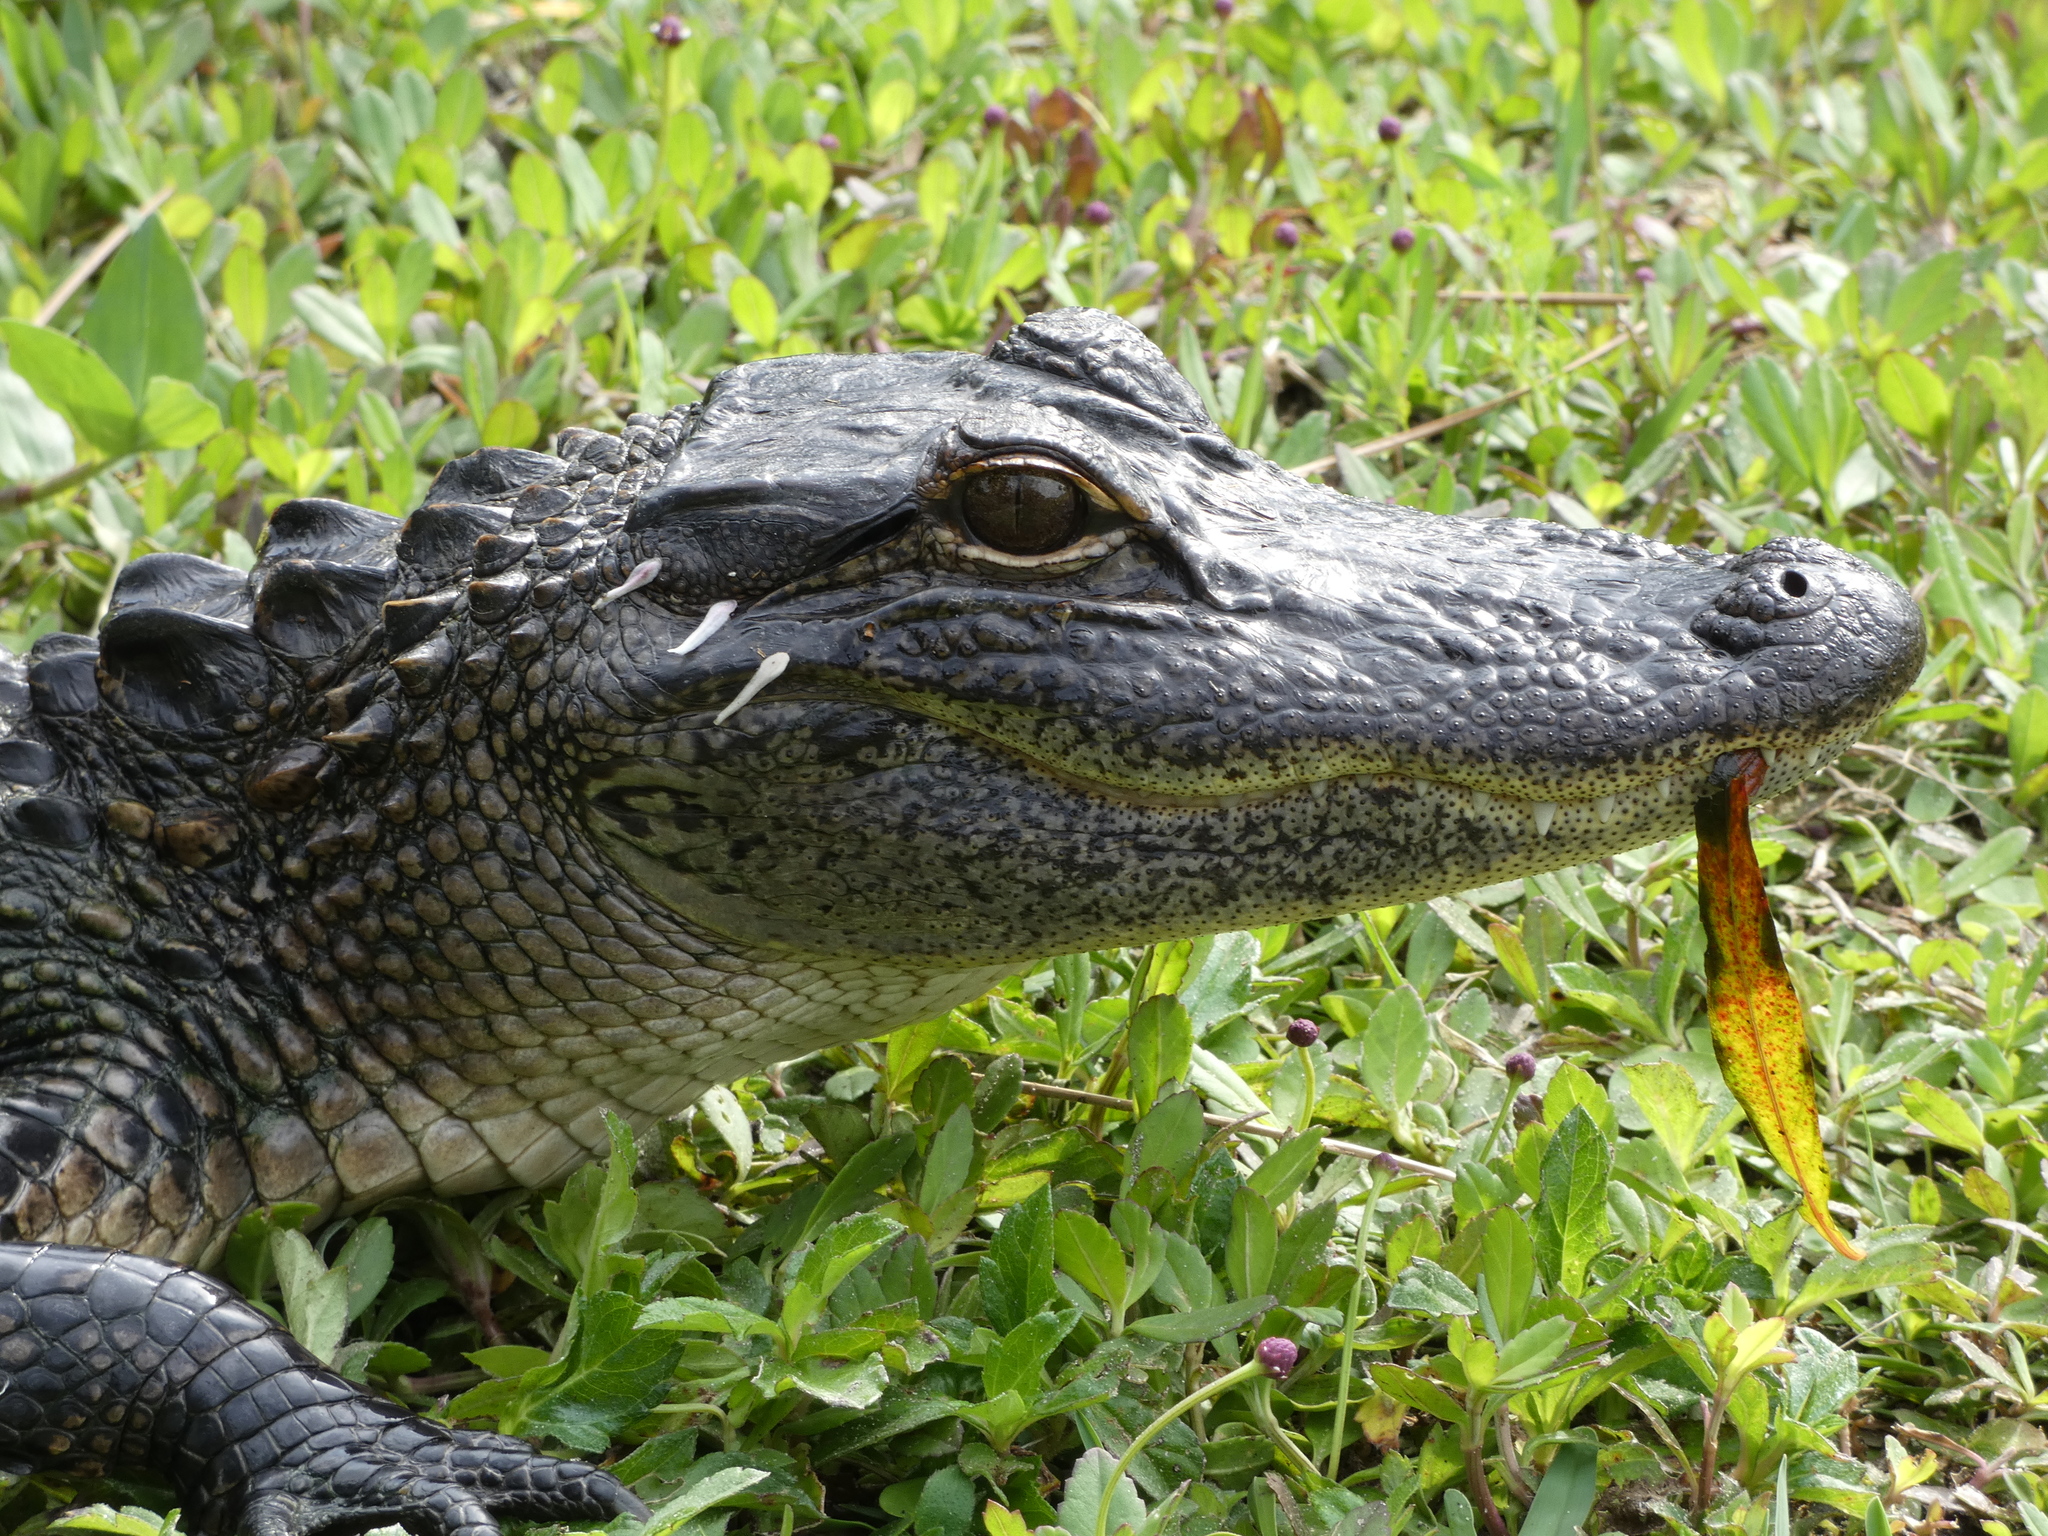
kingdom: Animalia
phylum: Chordata
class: Crocodylia
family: Alligatoridae
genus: Alligator
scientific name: Alligator mississippiensis
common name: American alligator
